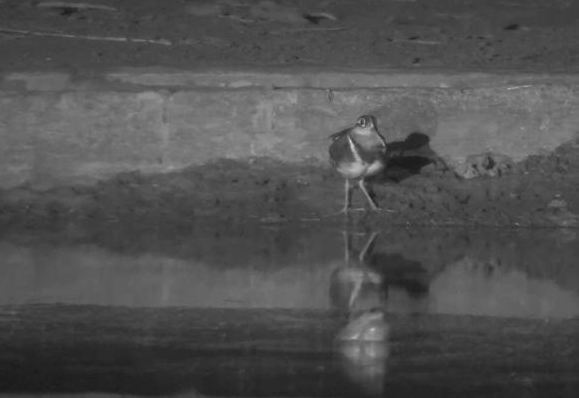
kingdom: Animalia
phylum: Chordata
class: Aves
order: Charadriiformes
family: Rostratulidae
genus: Rostratula
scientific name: Rostratula benghalensis
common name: Greater painted-snipe
